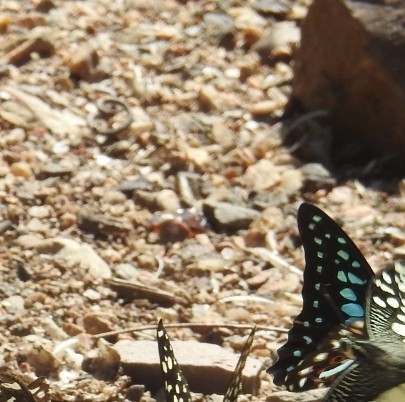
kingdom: Animalia
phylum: Arthropoda
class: Insecta
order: Lepidoptera
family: Papilionidae
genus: Graphium
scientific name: Graphium doson
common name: Common jay
